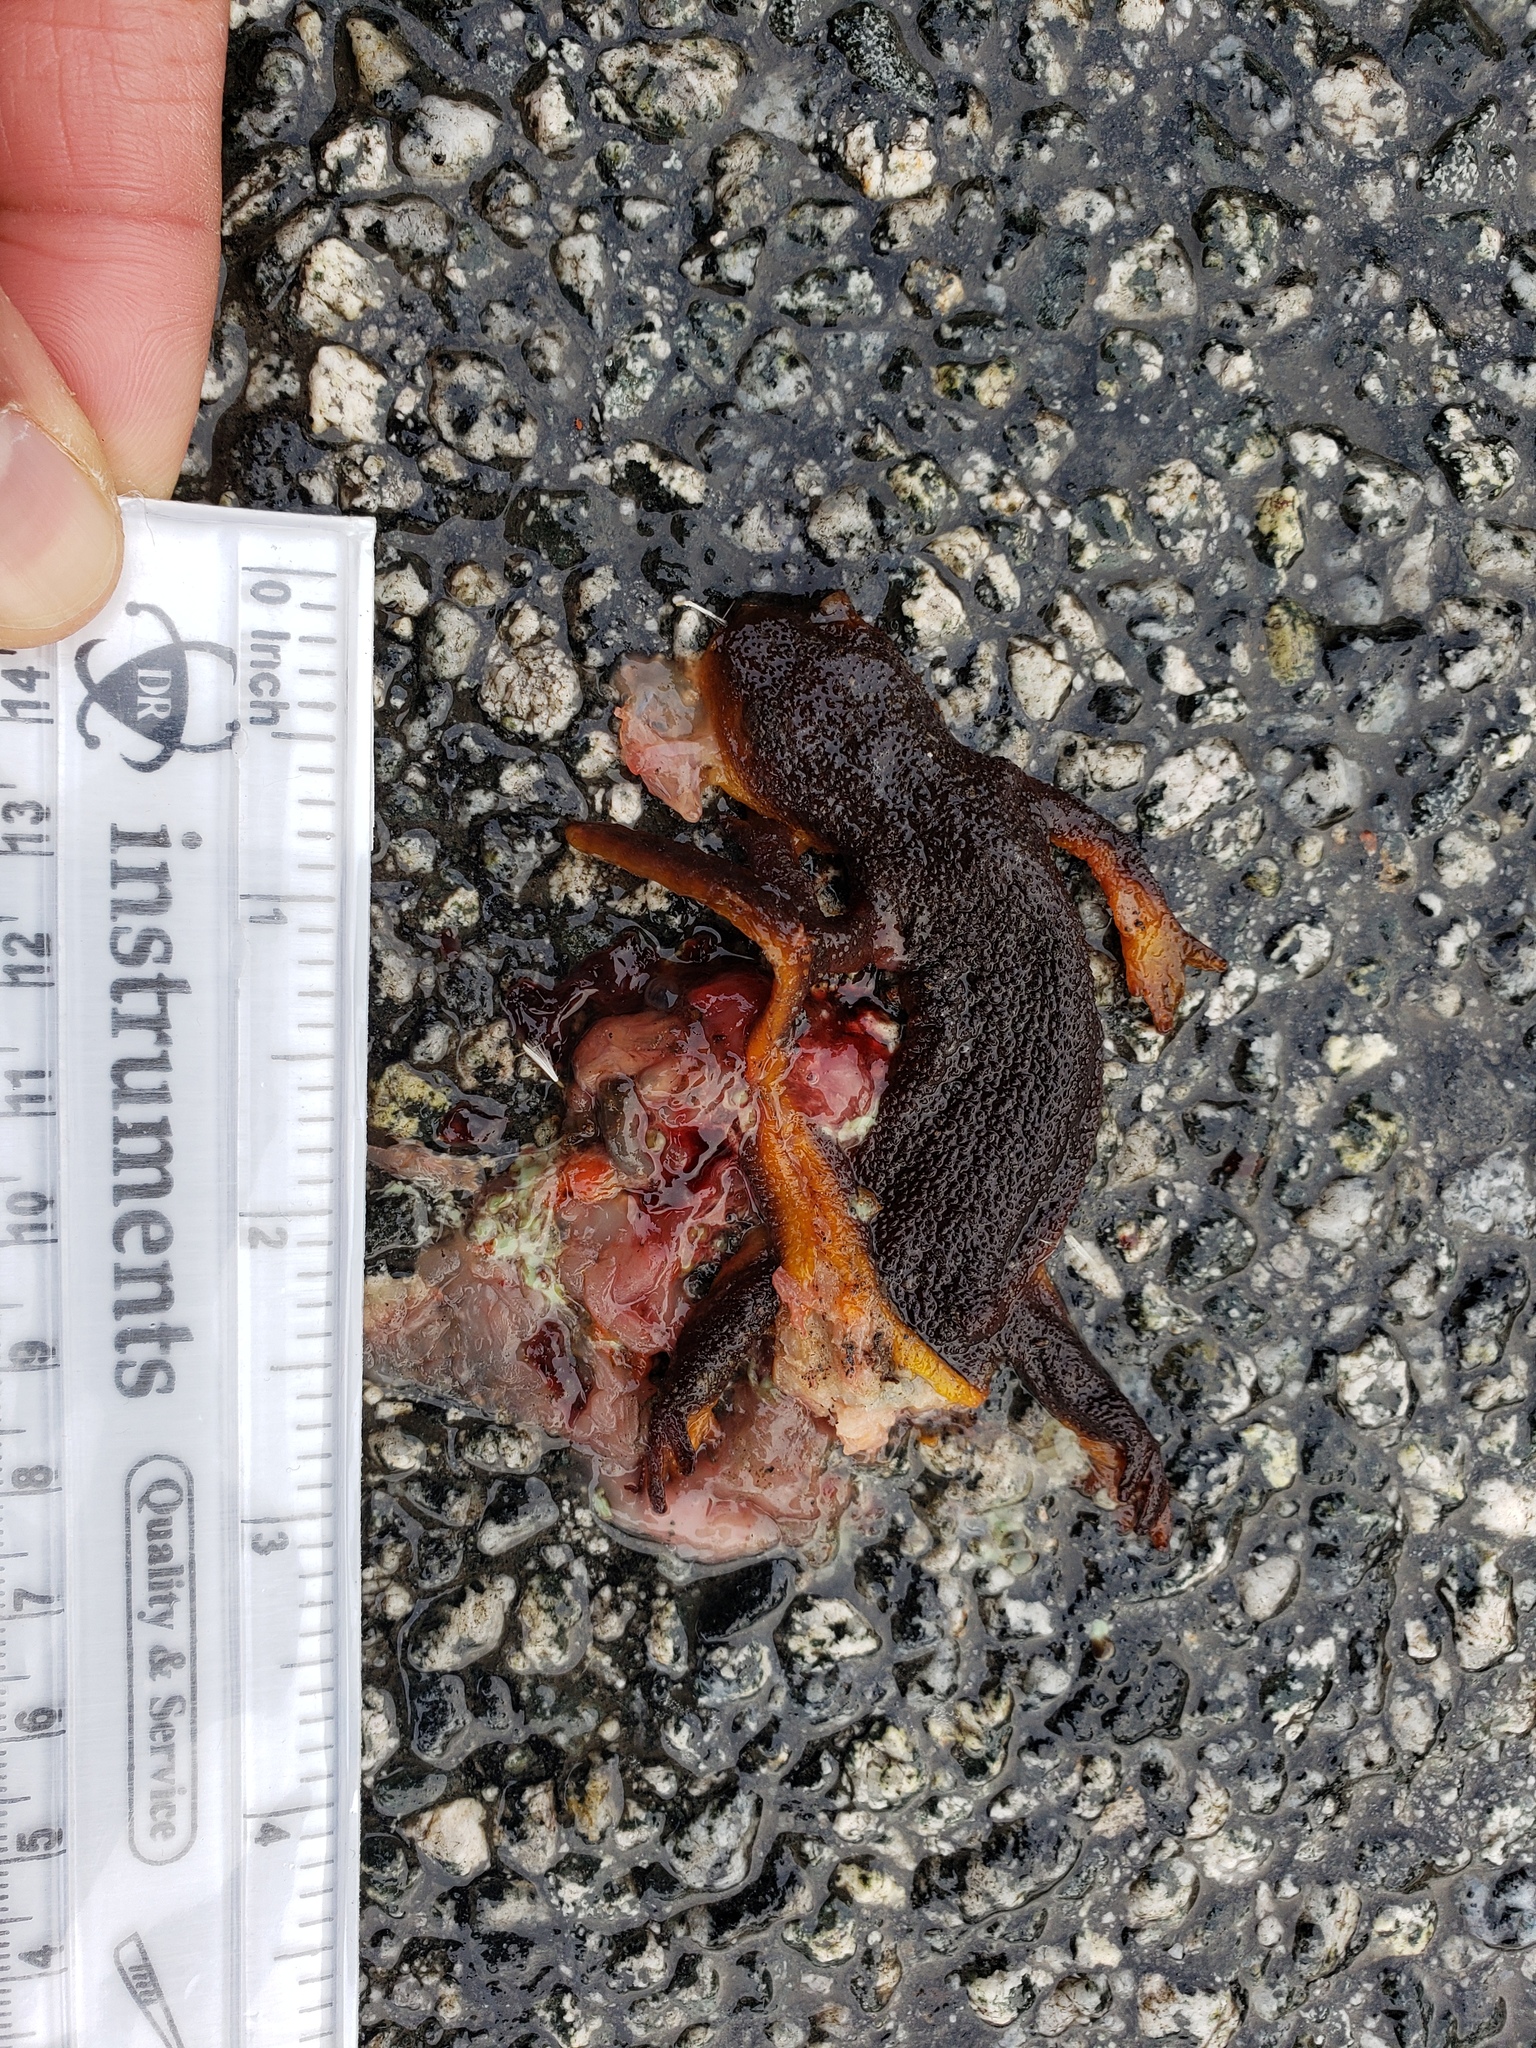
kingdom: Animalia
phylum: Chordata
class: Amphibia
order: Caudata
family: Salamandridae
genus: Taricha
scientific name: Taricha
